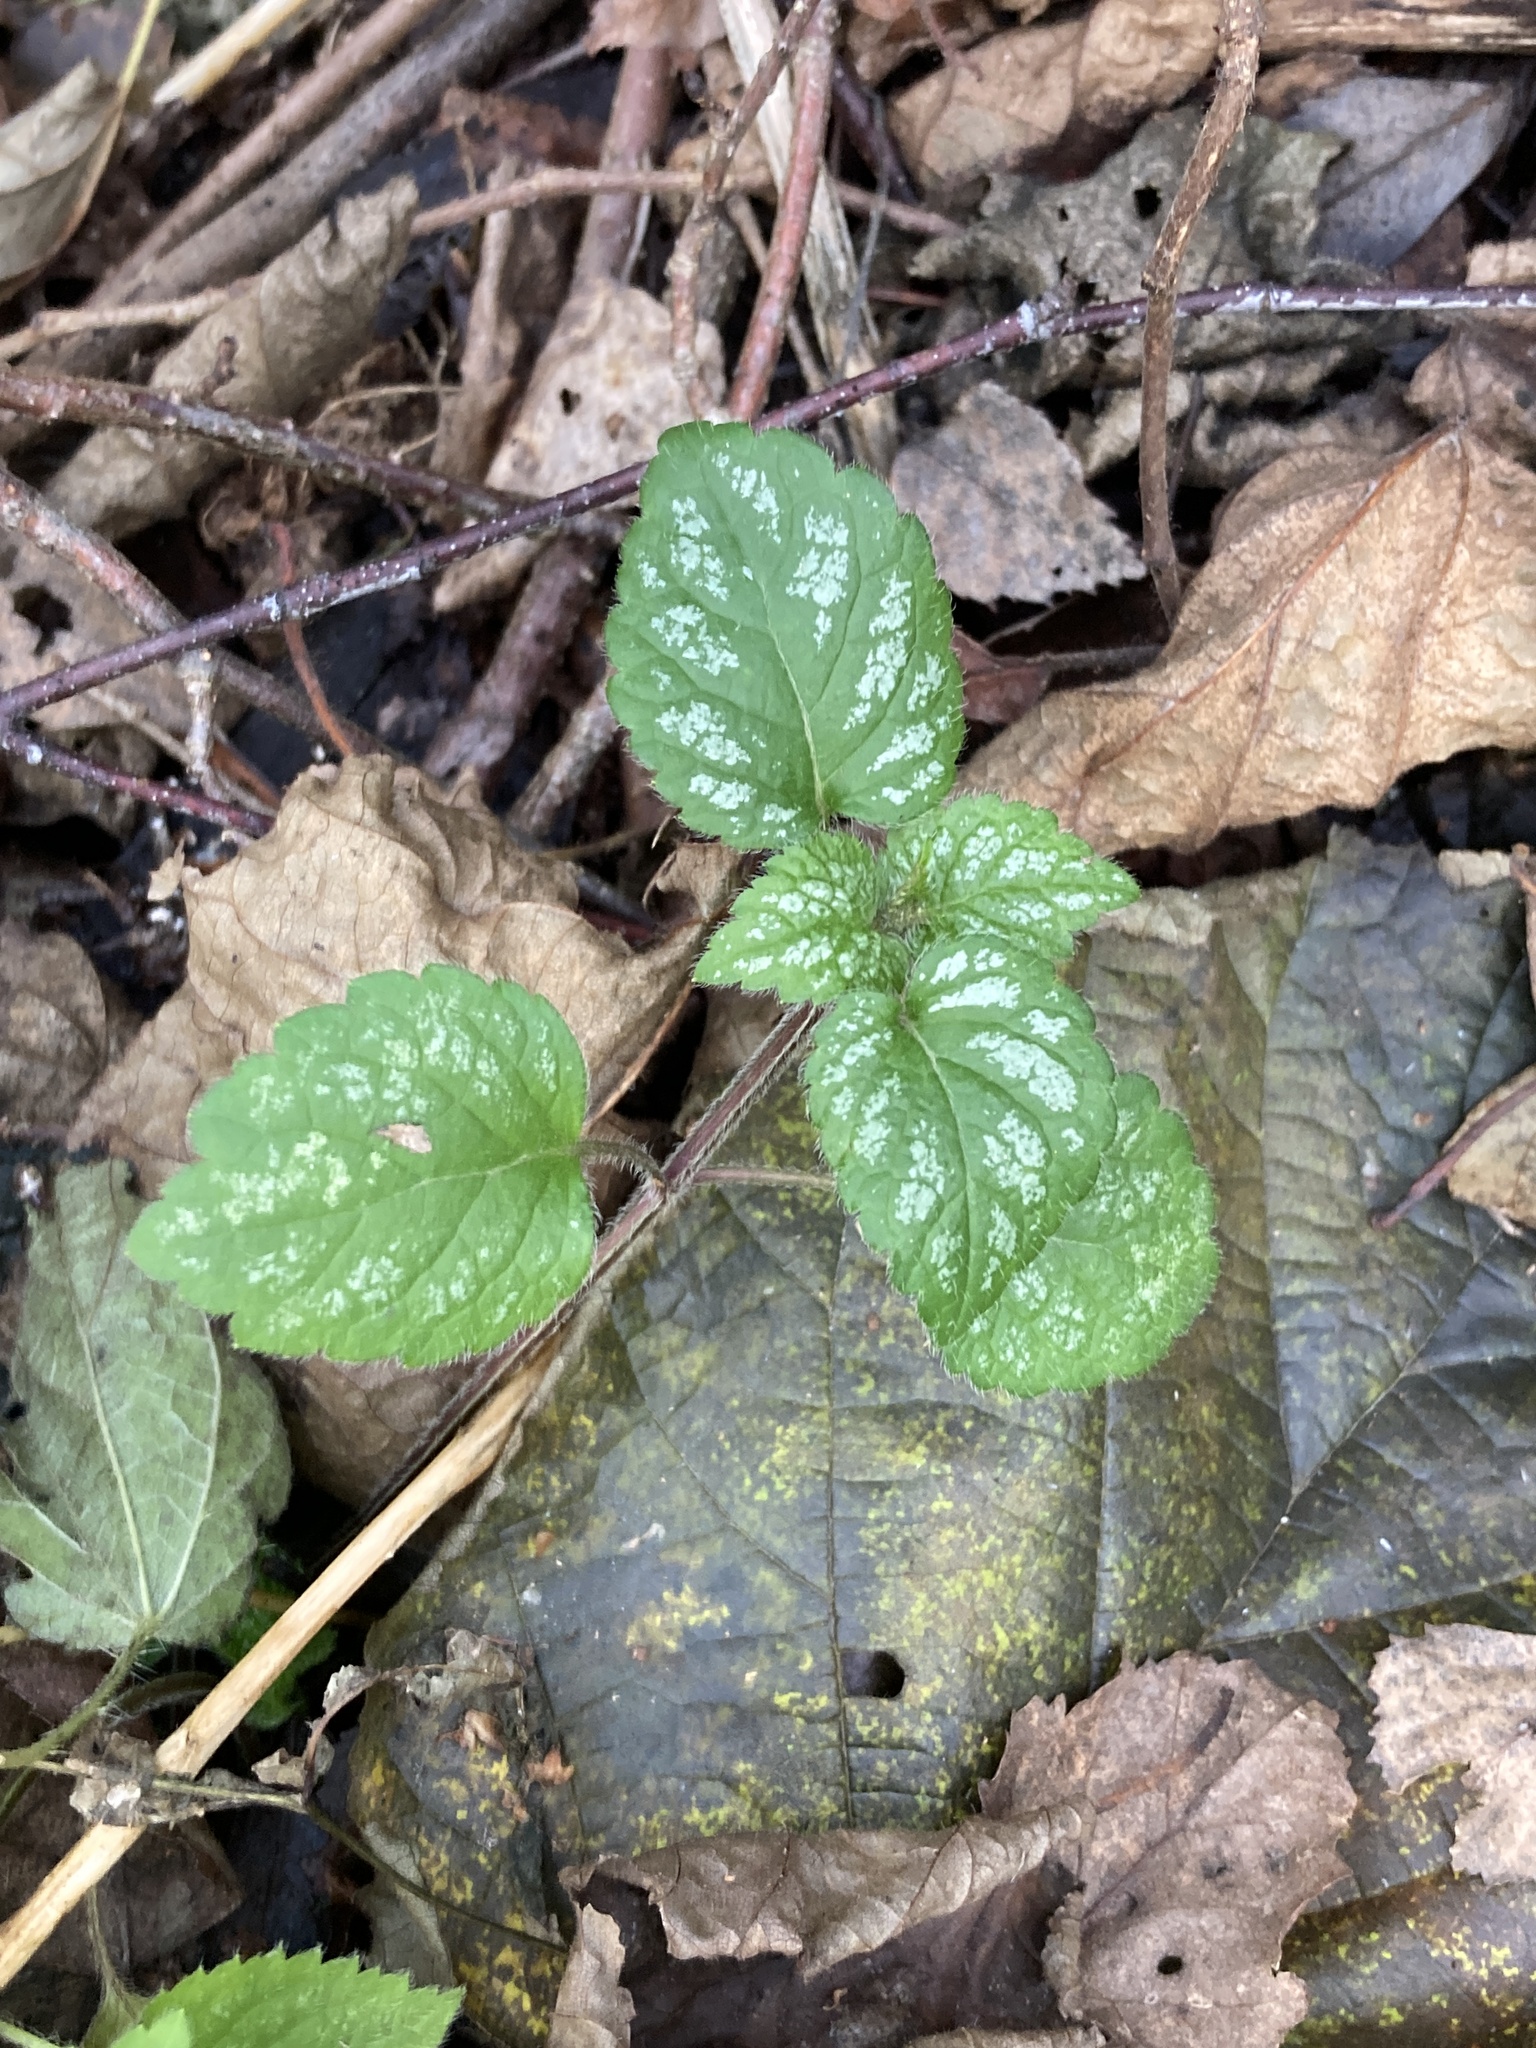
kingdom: Plantae
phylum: Tracheophyta
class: Magnoliopsida
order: Lamiales
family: Lamiaceae
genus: Lamium
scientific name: Lamium galeobdolon
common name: Yellow archangel
